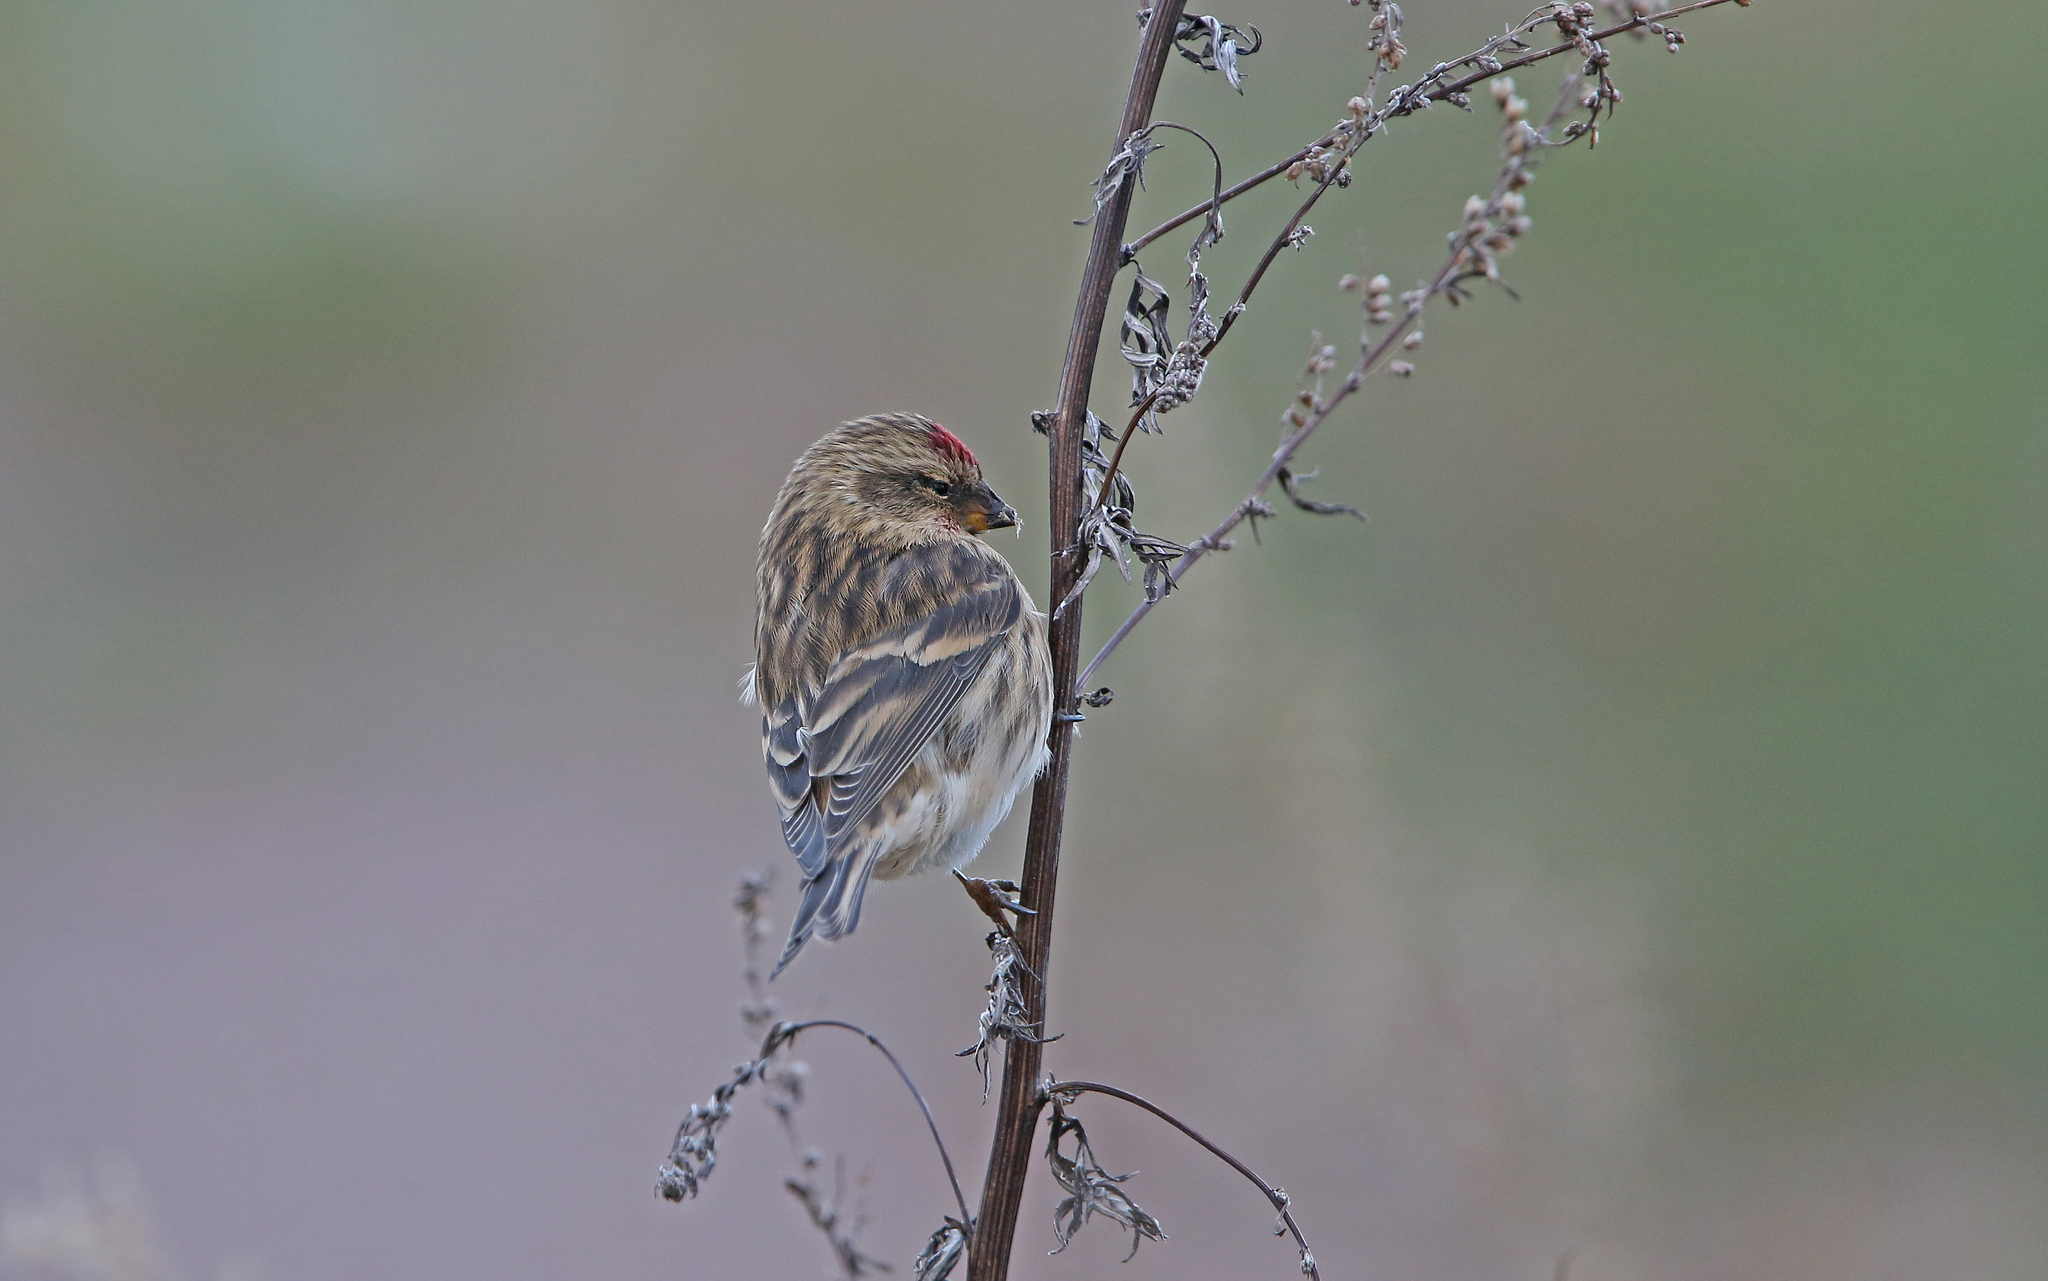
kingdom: Animalia
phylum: Chordata
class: Aves
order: Passeriformes
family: Fringillidae
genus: Acanthis
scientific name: Acanthis flammea
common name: Common redpoll
